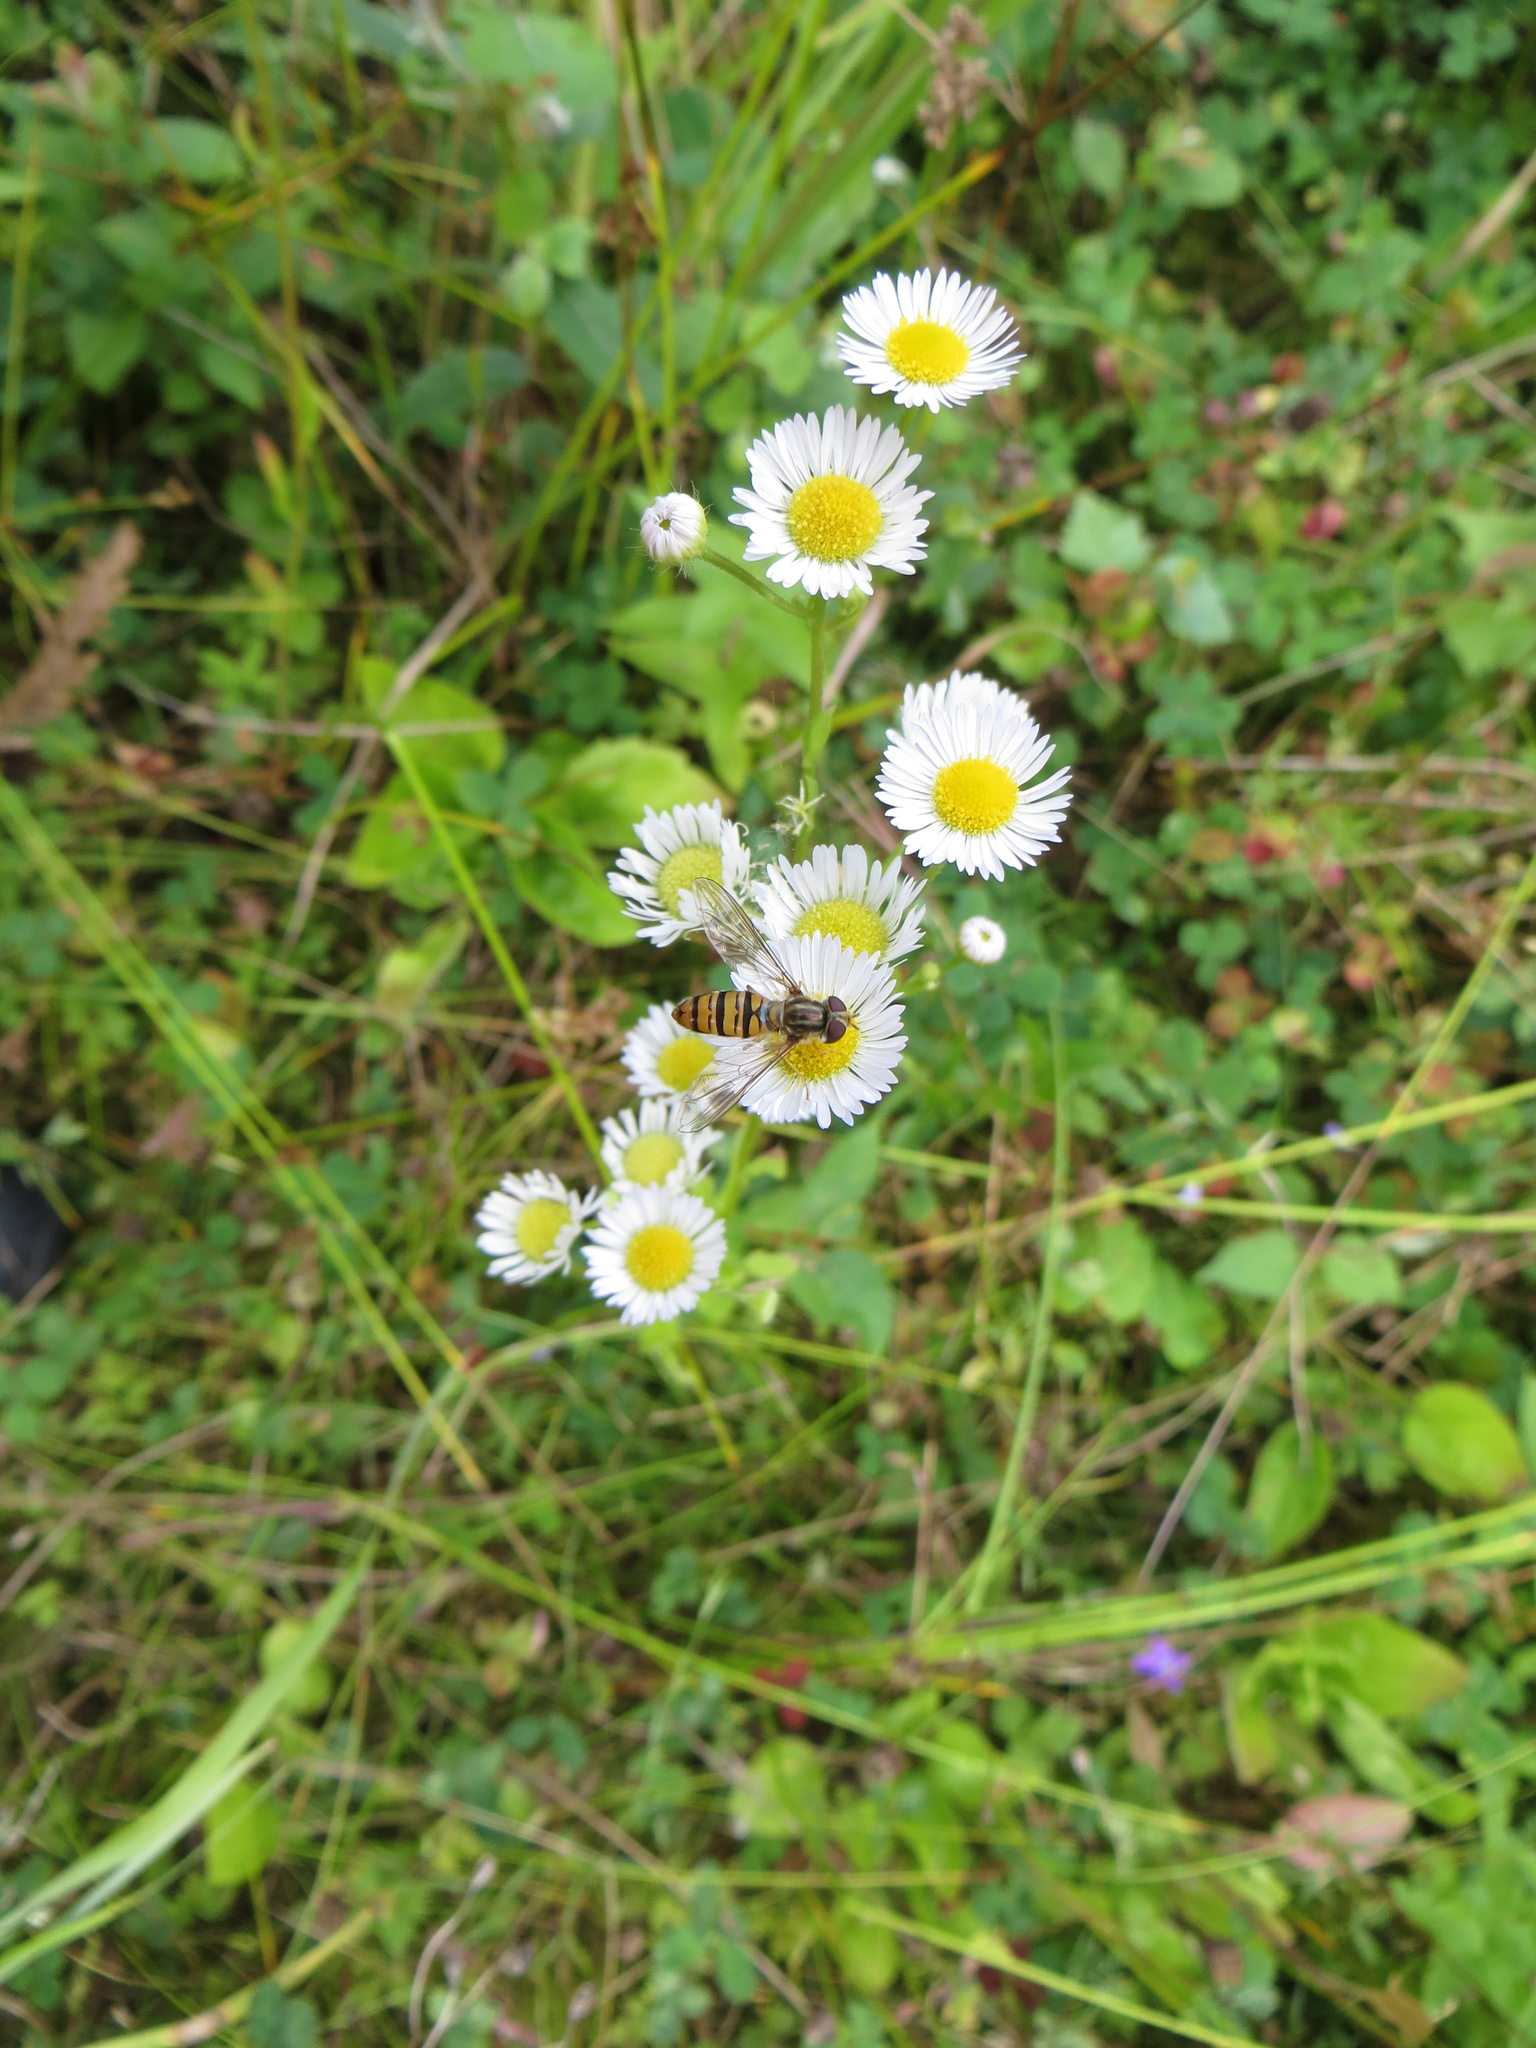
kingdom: Animalia
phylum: Arthropoda
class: Insecta
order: Diptera
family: Syrphidae
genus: Episyrphus
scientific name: Episyrphus balteatus
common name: Marmalade hoverfly
